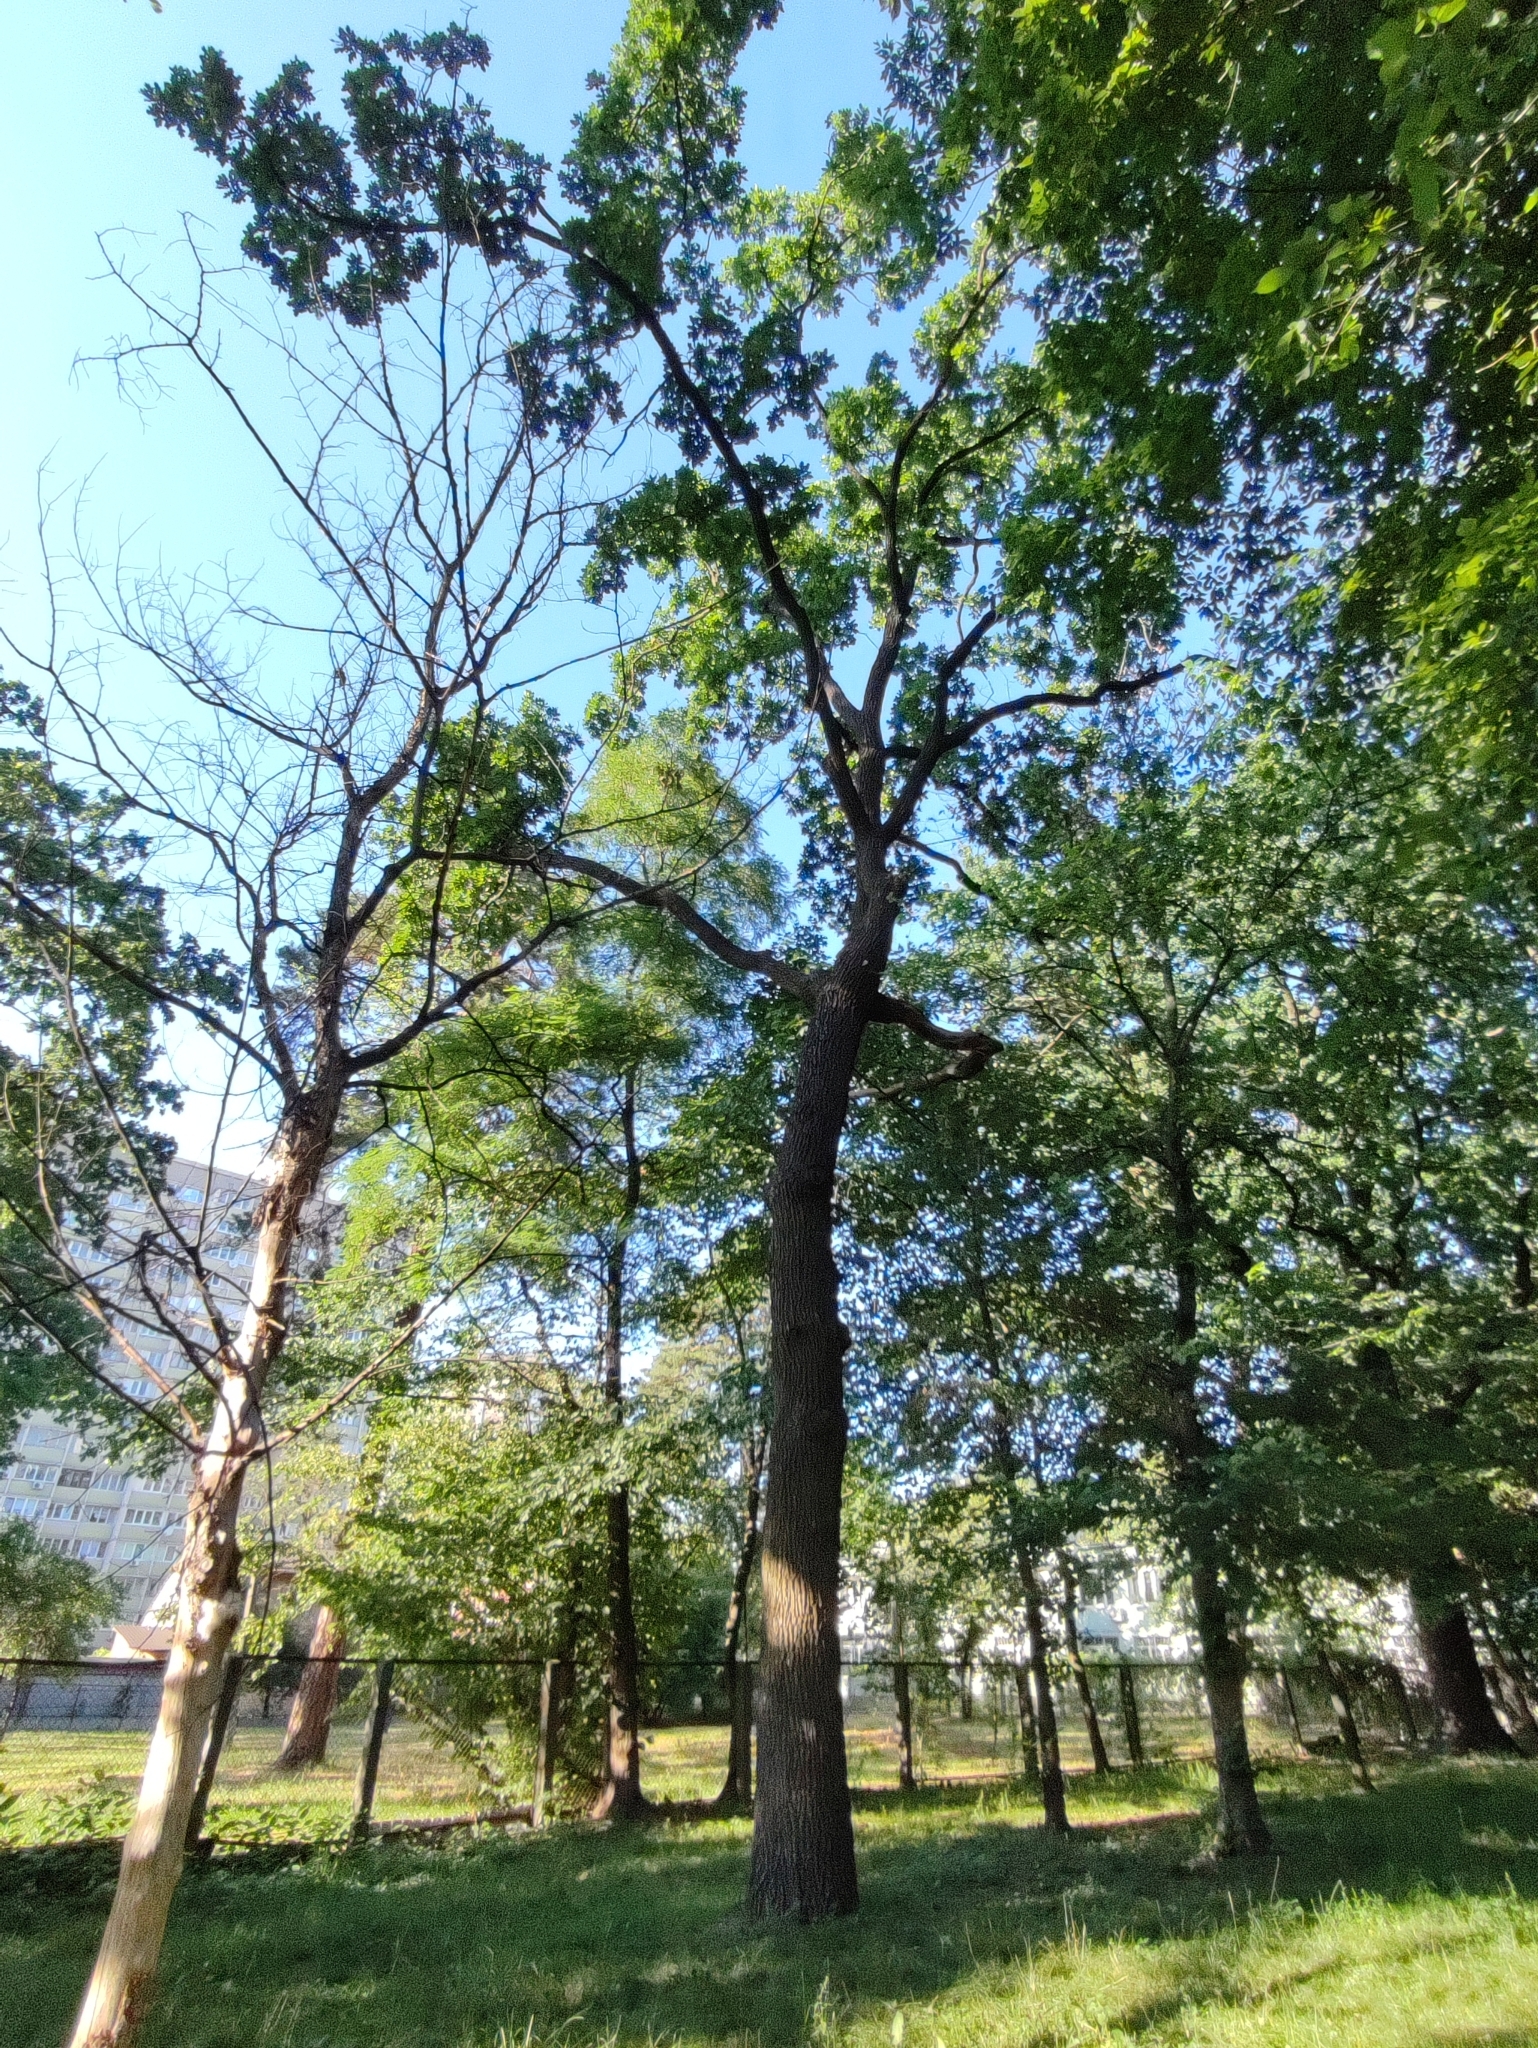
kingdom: Plantae
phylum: Tracheophyta
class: Magnoliopsida
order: Fagales
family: Fagaceae
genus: Quercus
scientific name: Quercus robur
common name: Pedunculate oak
